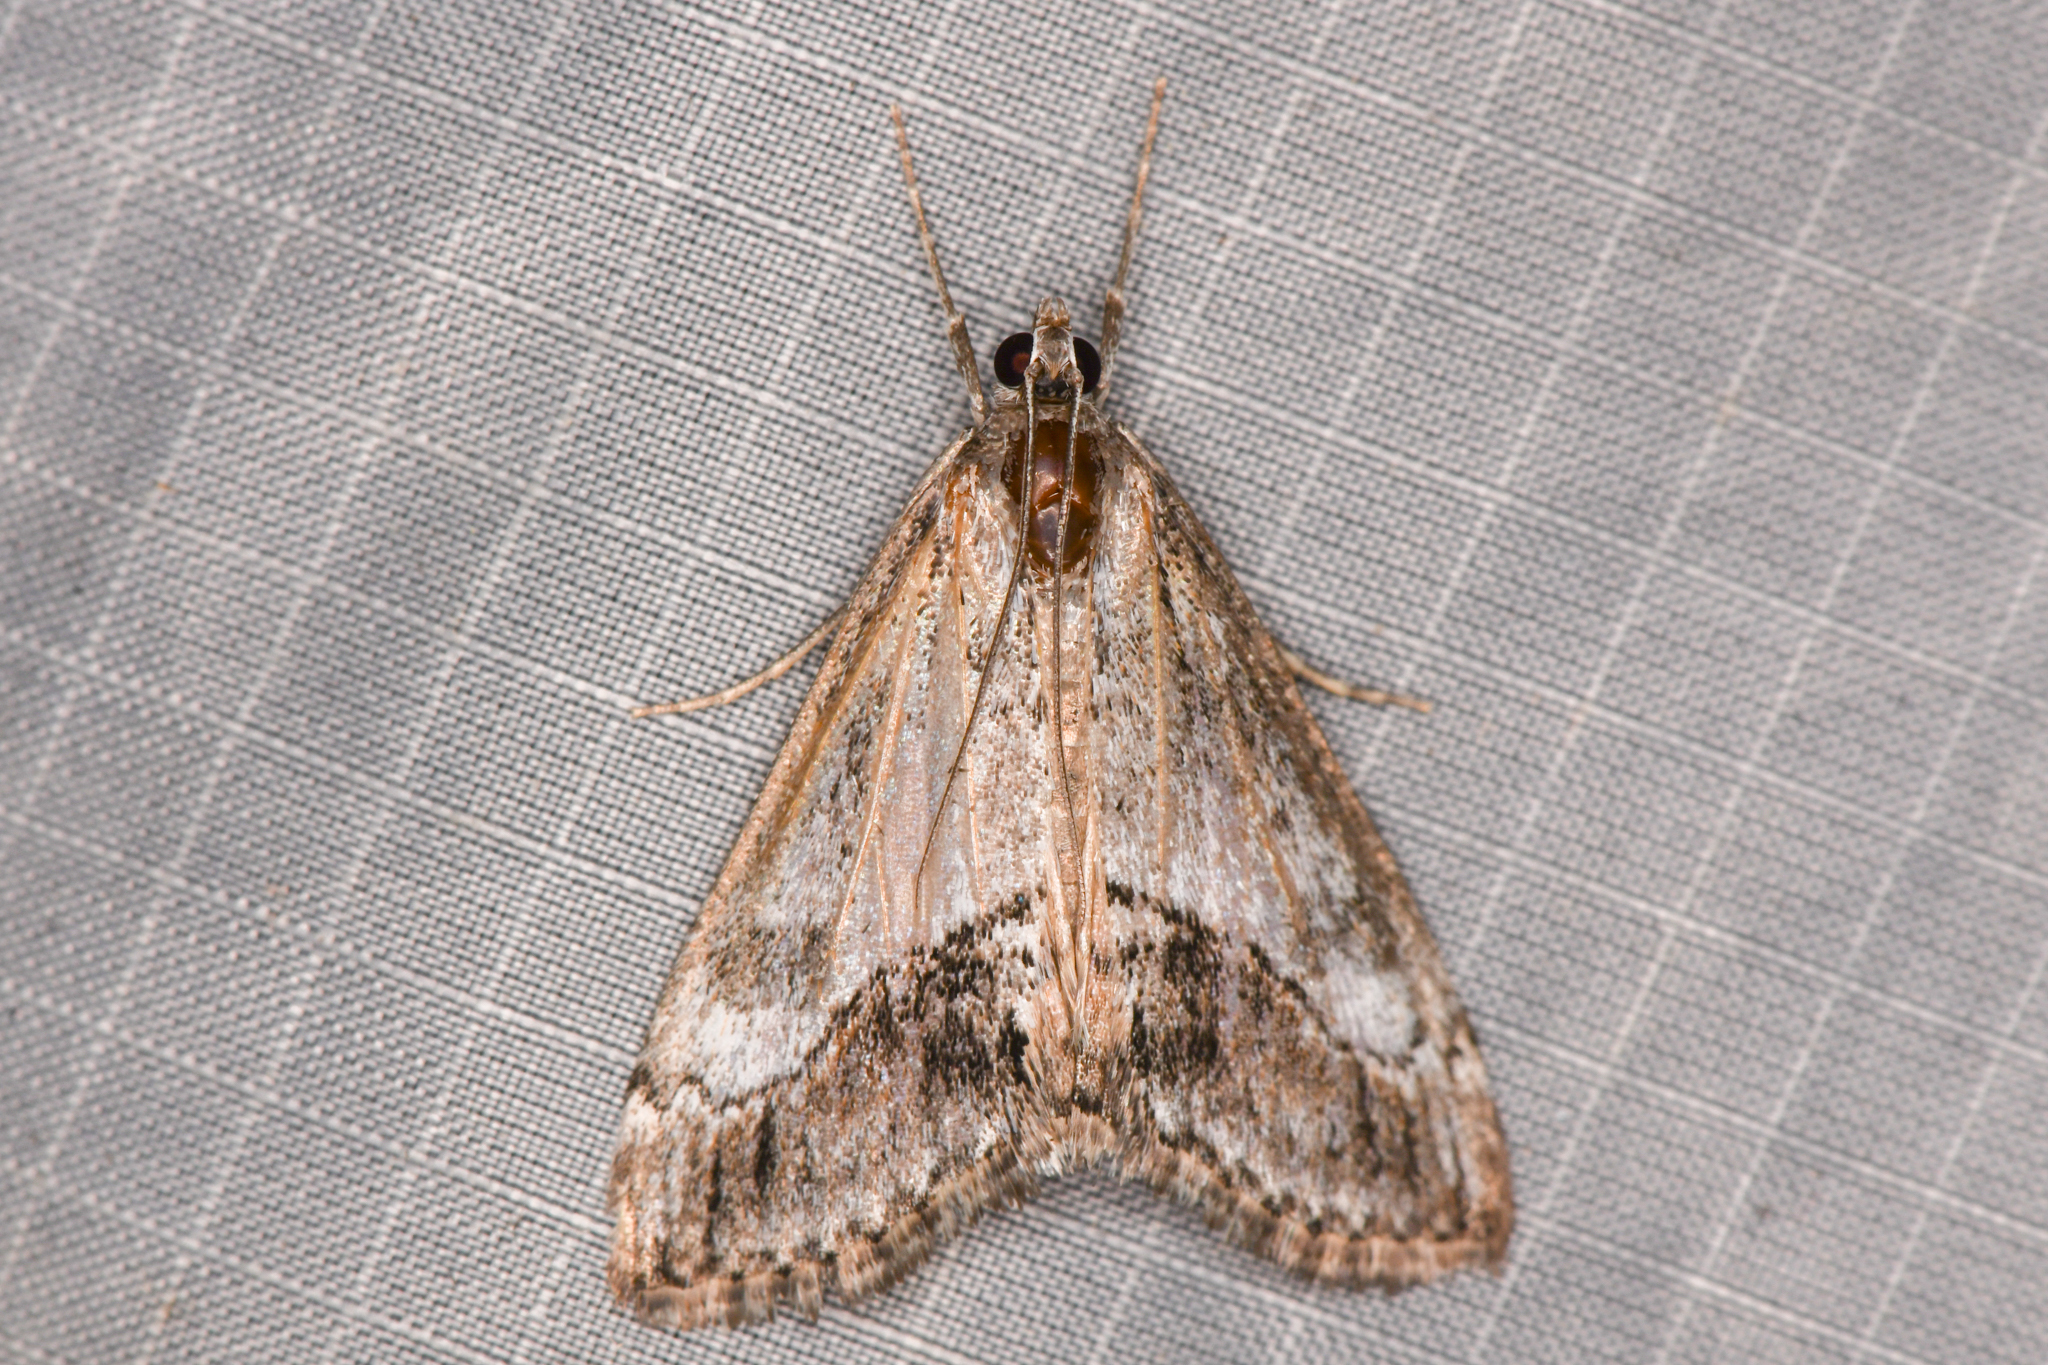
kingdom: Animalia
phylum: Arthropoda
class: Insecta
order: Lepidoptera
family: Crambidae
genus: Evergestis
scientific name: Evergestis subterminalis
